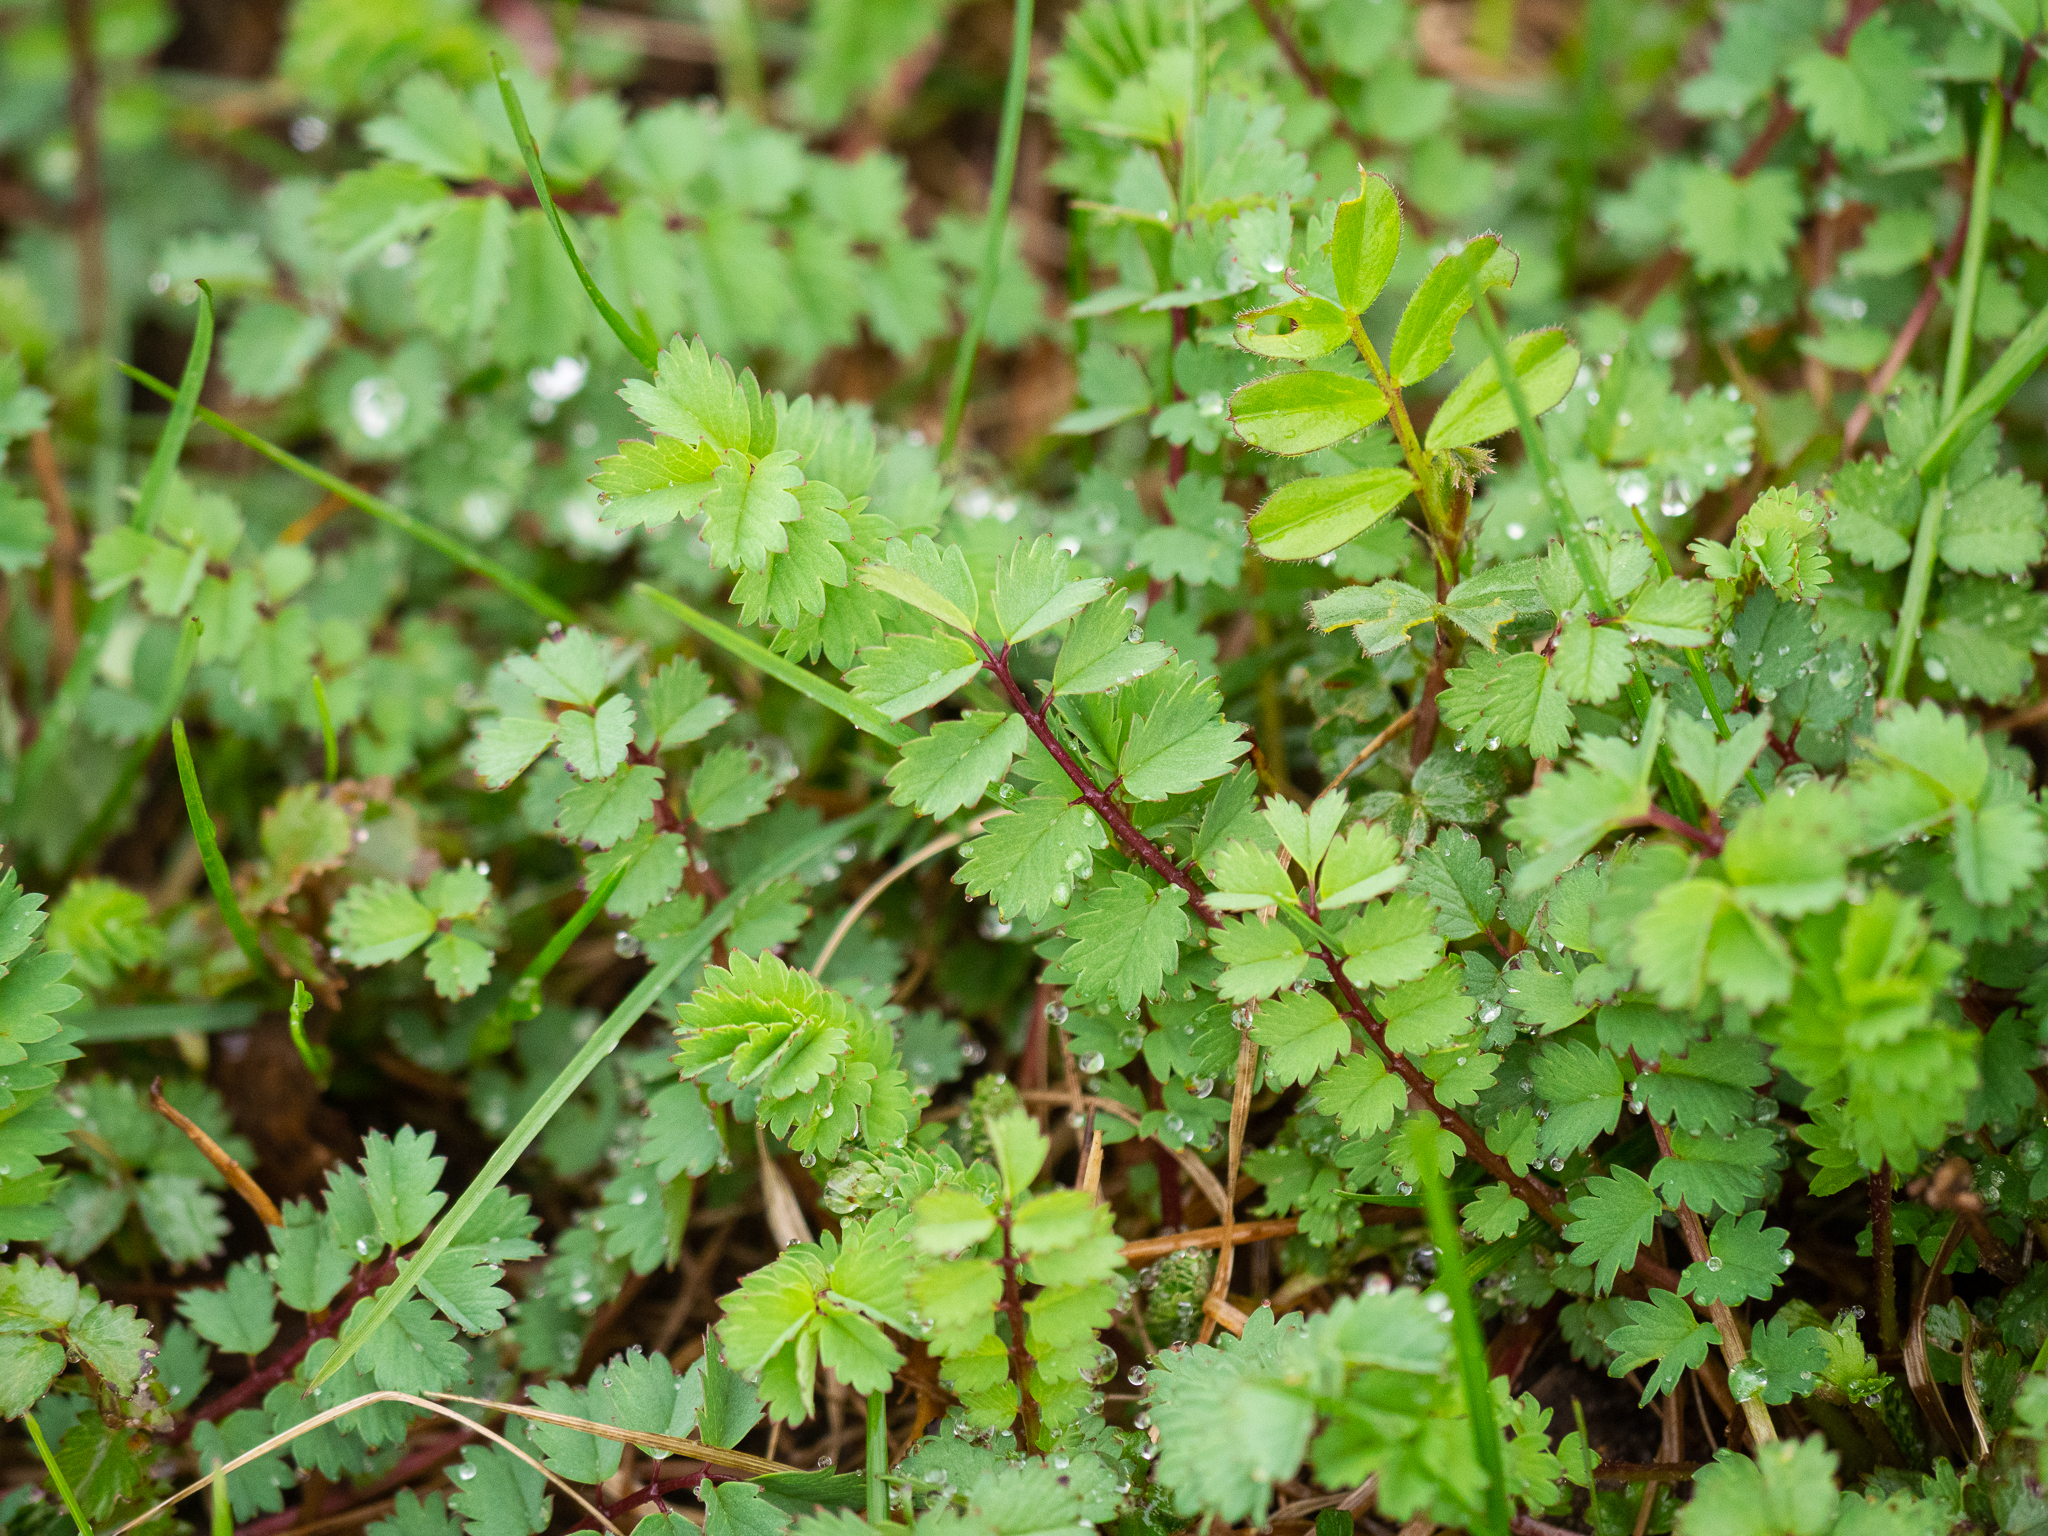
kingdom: Plantae
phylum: Tracheophyta
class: Magnoliopsida
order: Rosales
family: Rosaceae
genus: Poterium
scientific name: Poterium sanguisorba
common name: Salad burnet
